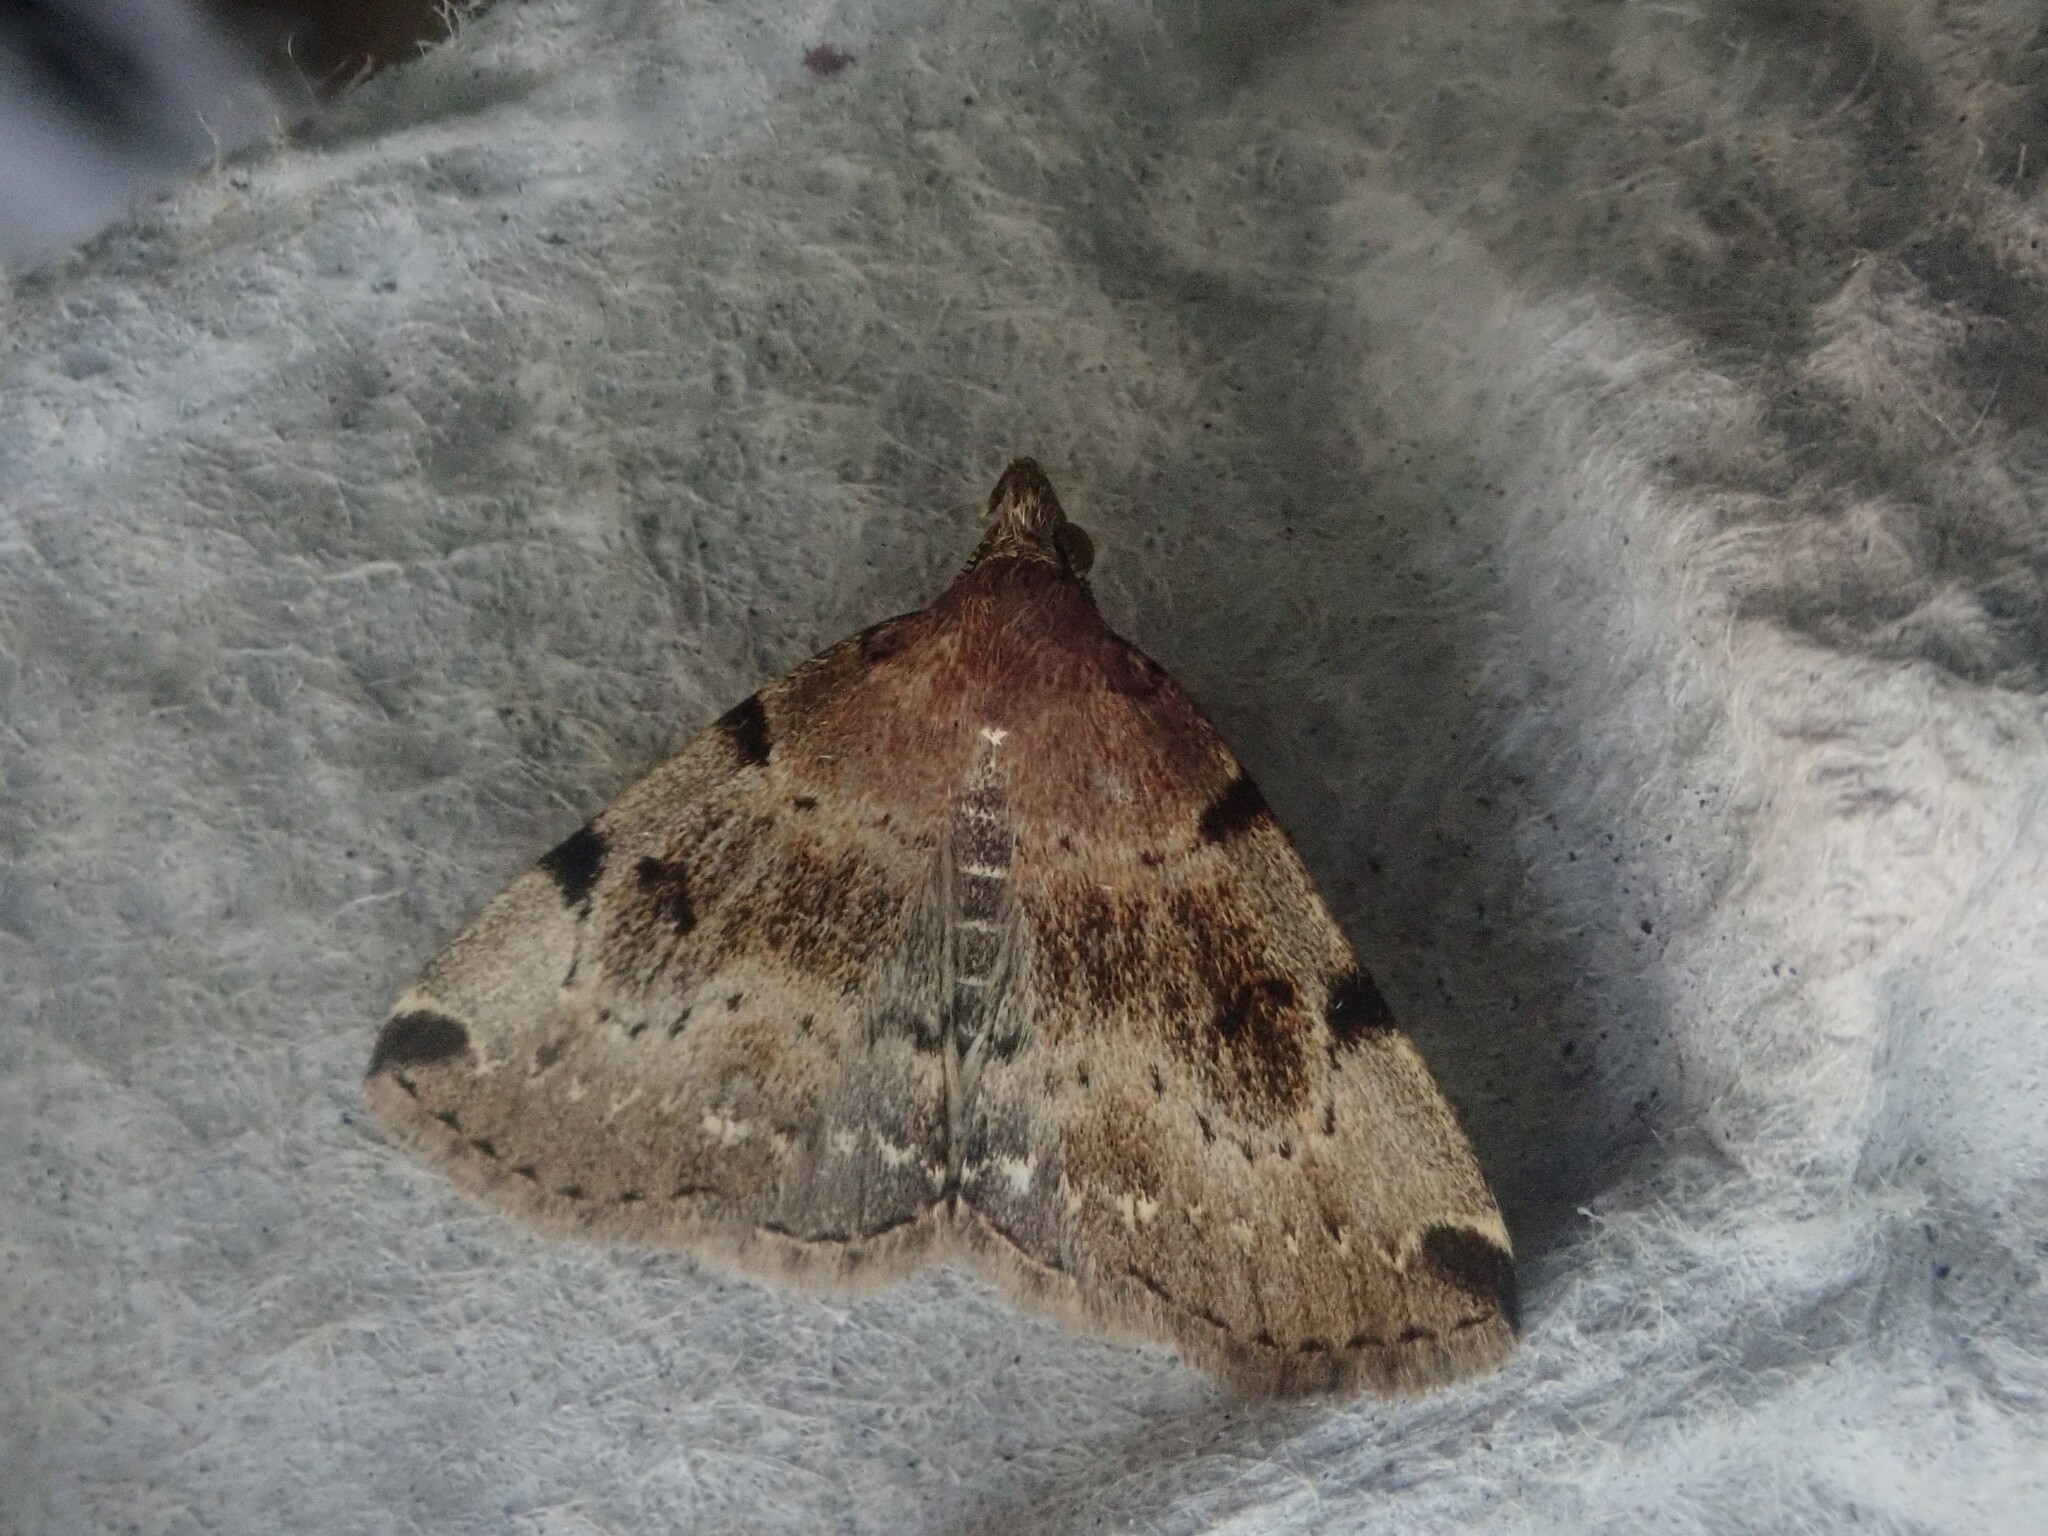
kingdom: Animalia
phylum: Arthropoda
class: Insecta
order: Lepidoptera
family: Erebidae
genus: Zanclognatha
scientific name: Zanclognatha lituralis
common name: Lettered fan-foot
